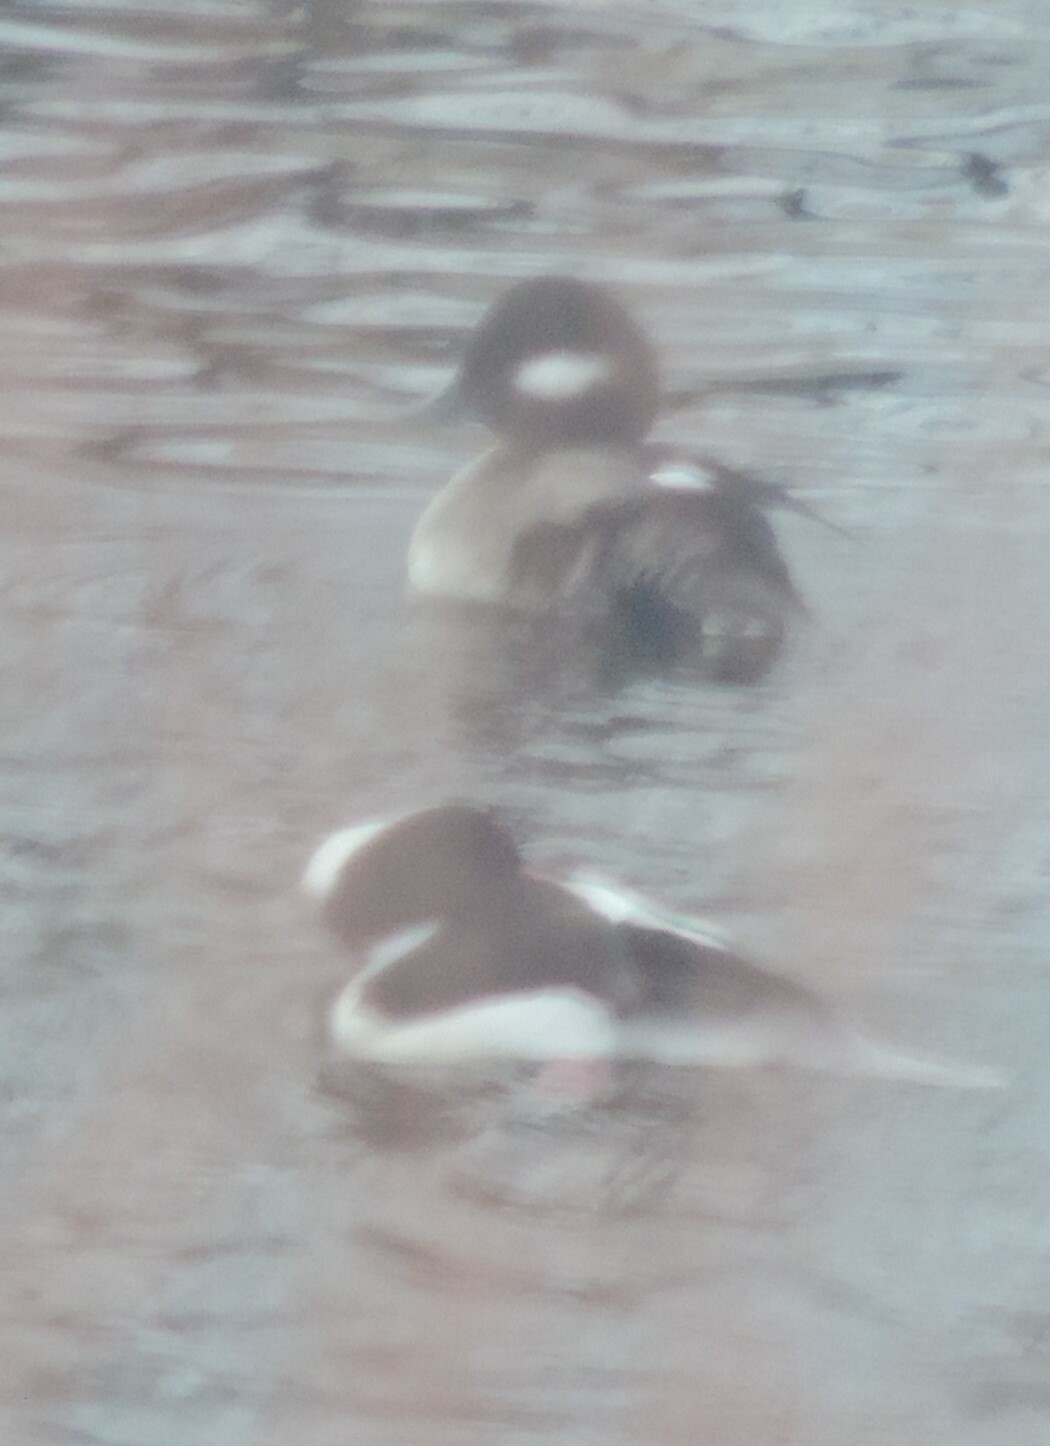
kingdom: Animalia
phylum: Chordata
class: Aves
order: Anseriformes
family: Anatidae
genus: Bucephala
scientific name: Bucephala albeola
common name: Bufflehead
